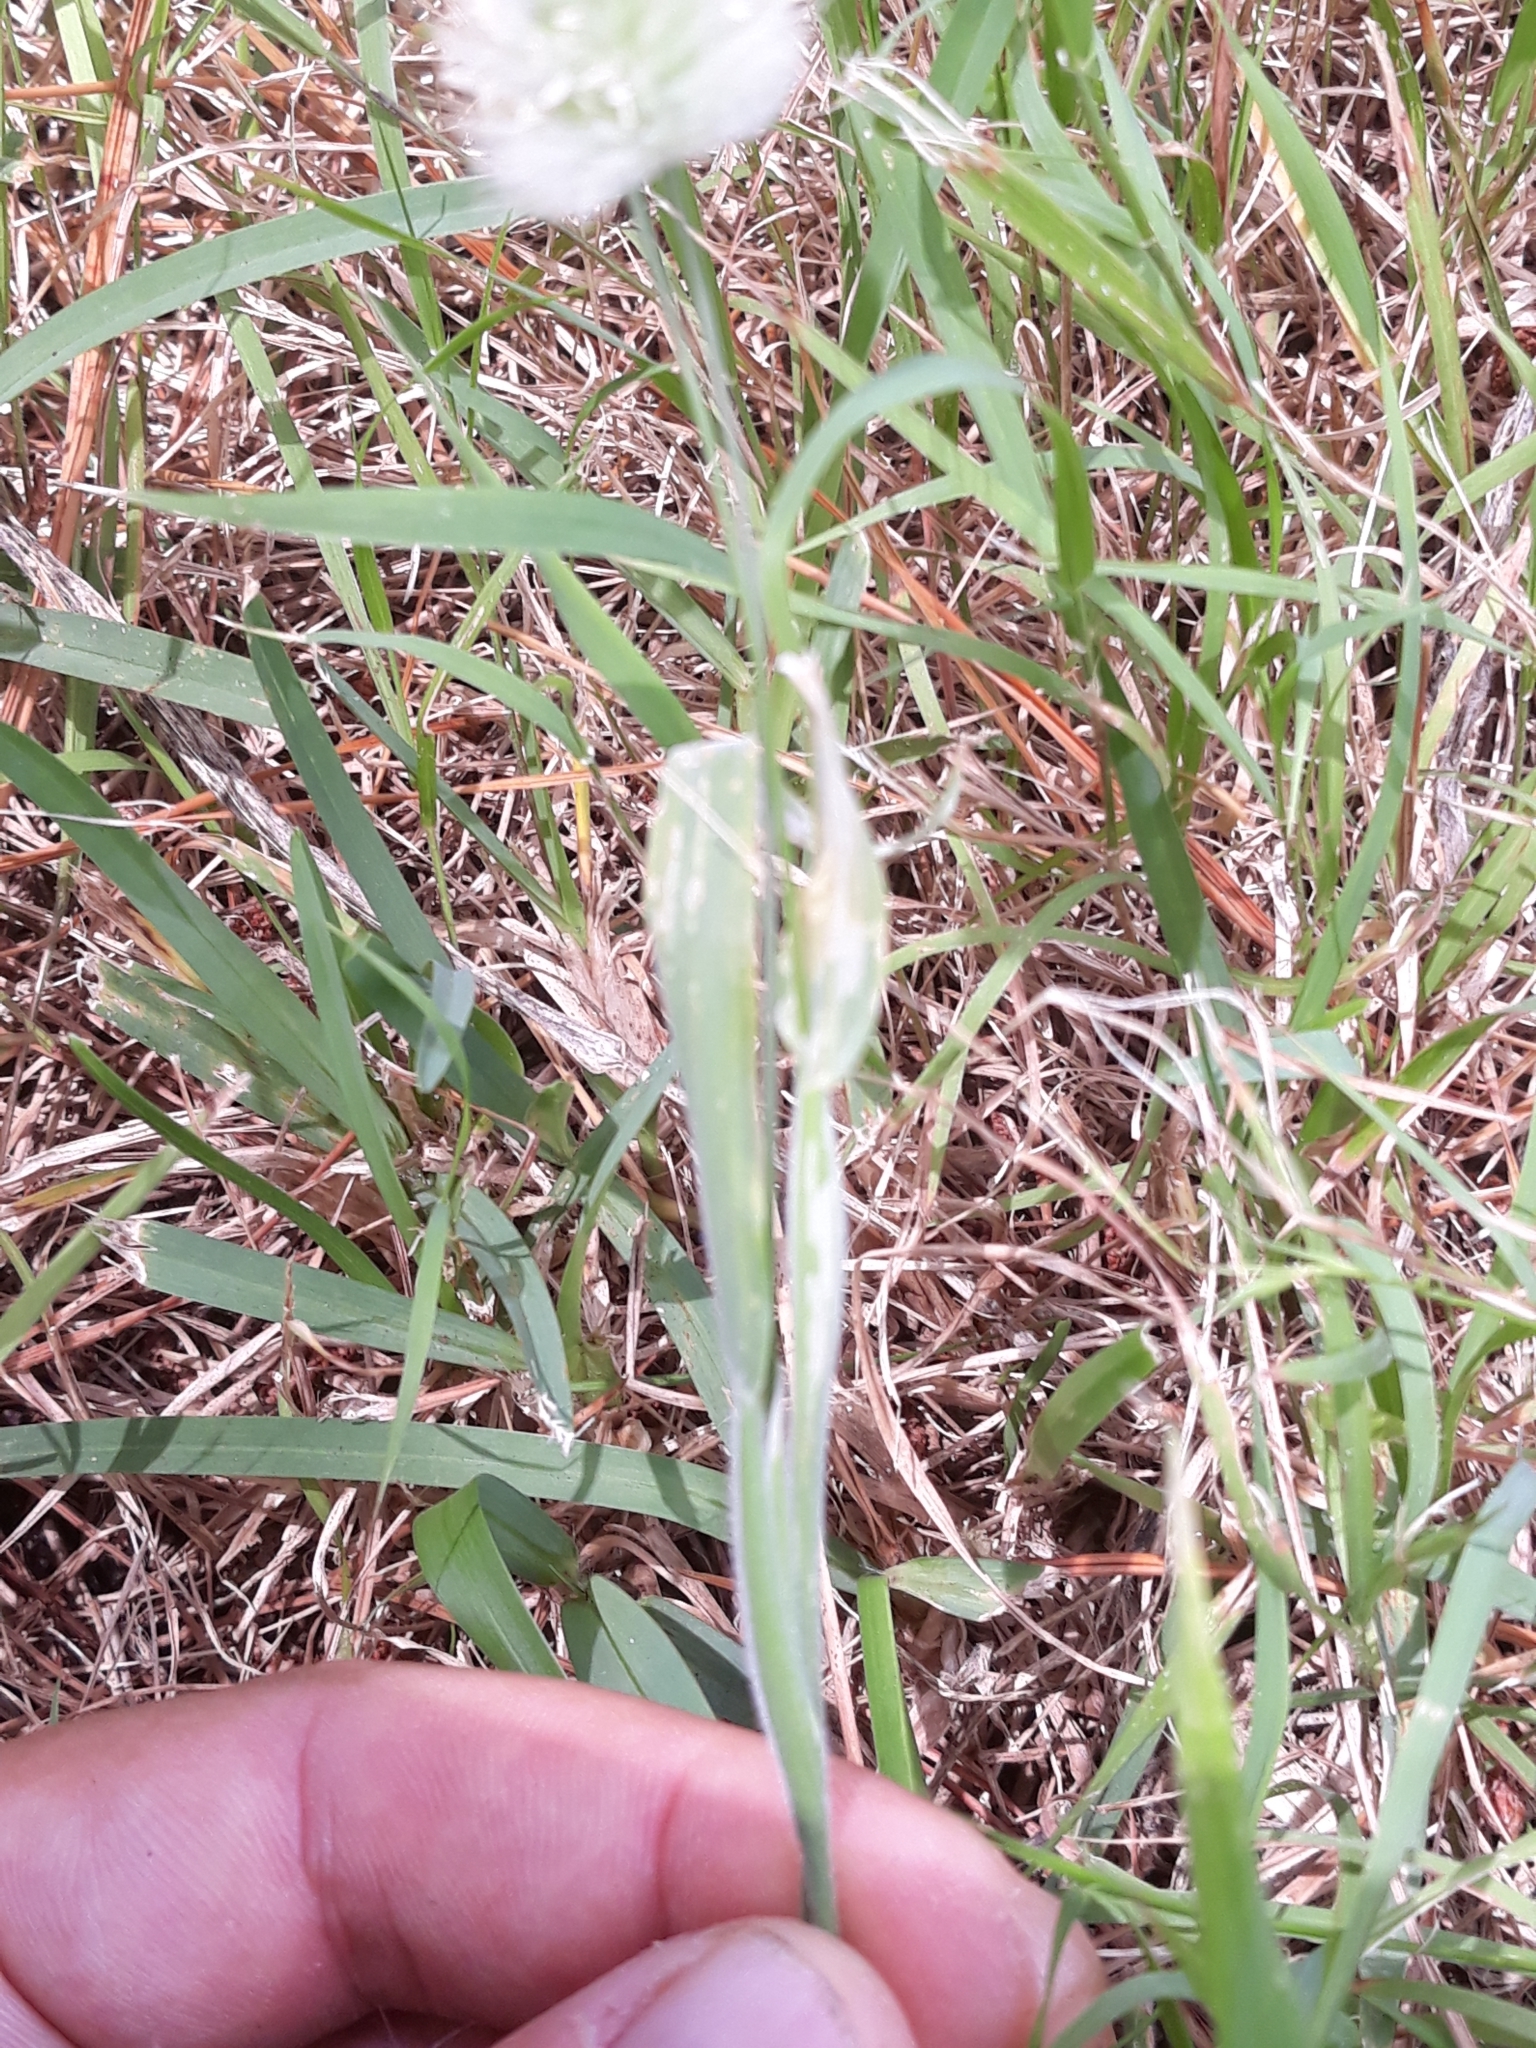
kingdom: Plantae
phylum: Tracheophyta
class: Liliopsida
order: Poales
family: Poaceae
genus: Lagurus
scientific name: Lagurus ovatus
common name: Hare's-tail
